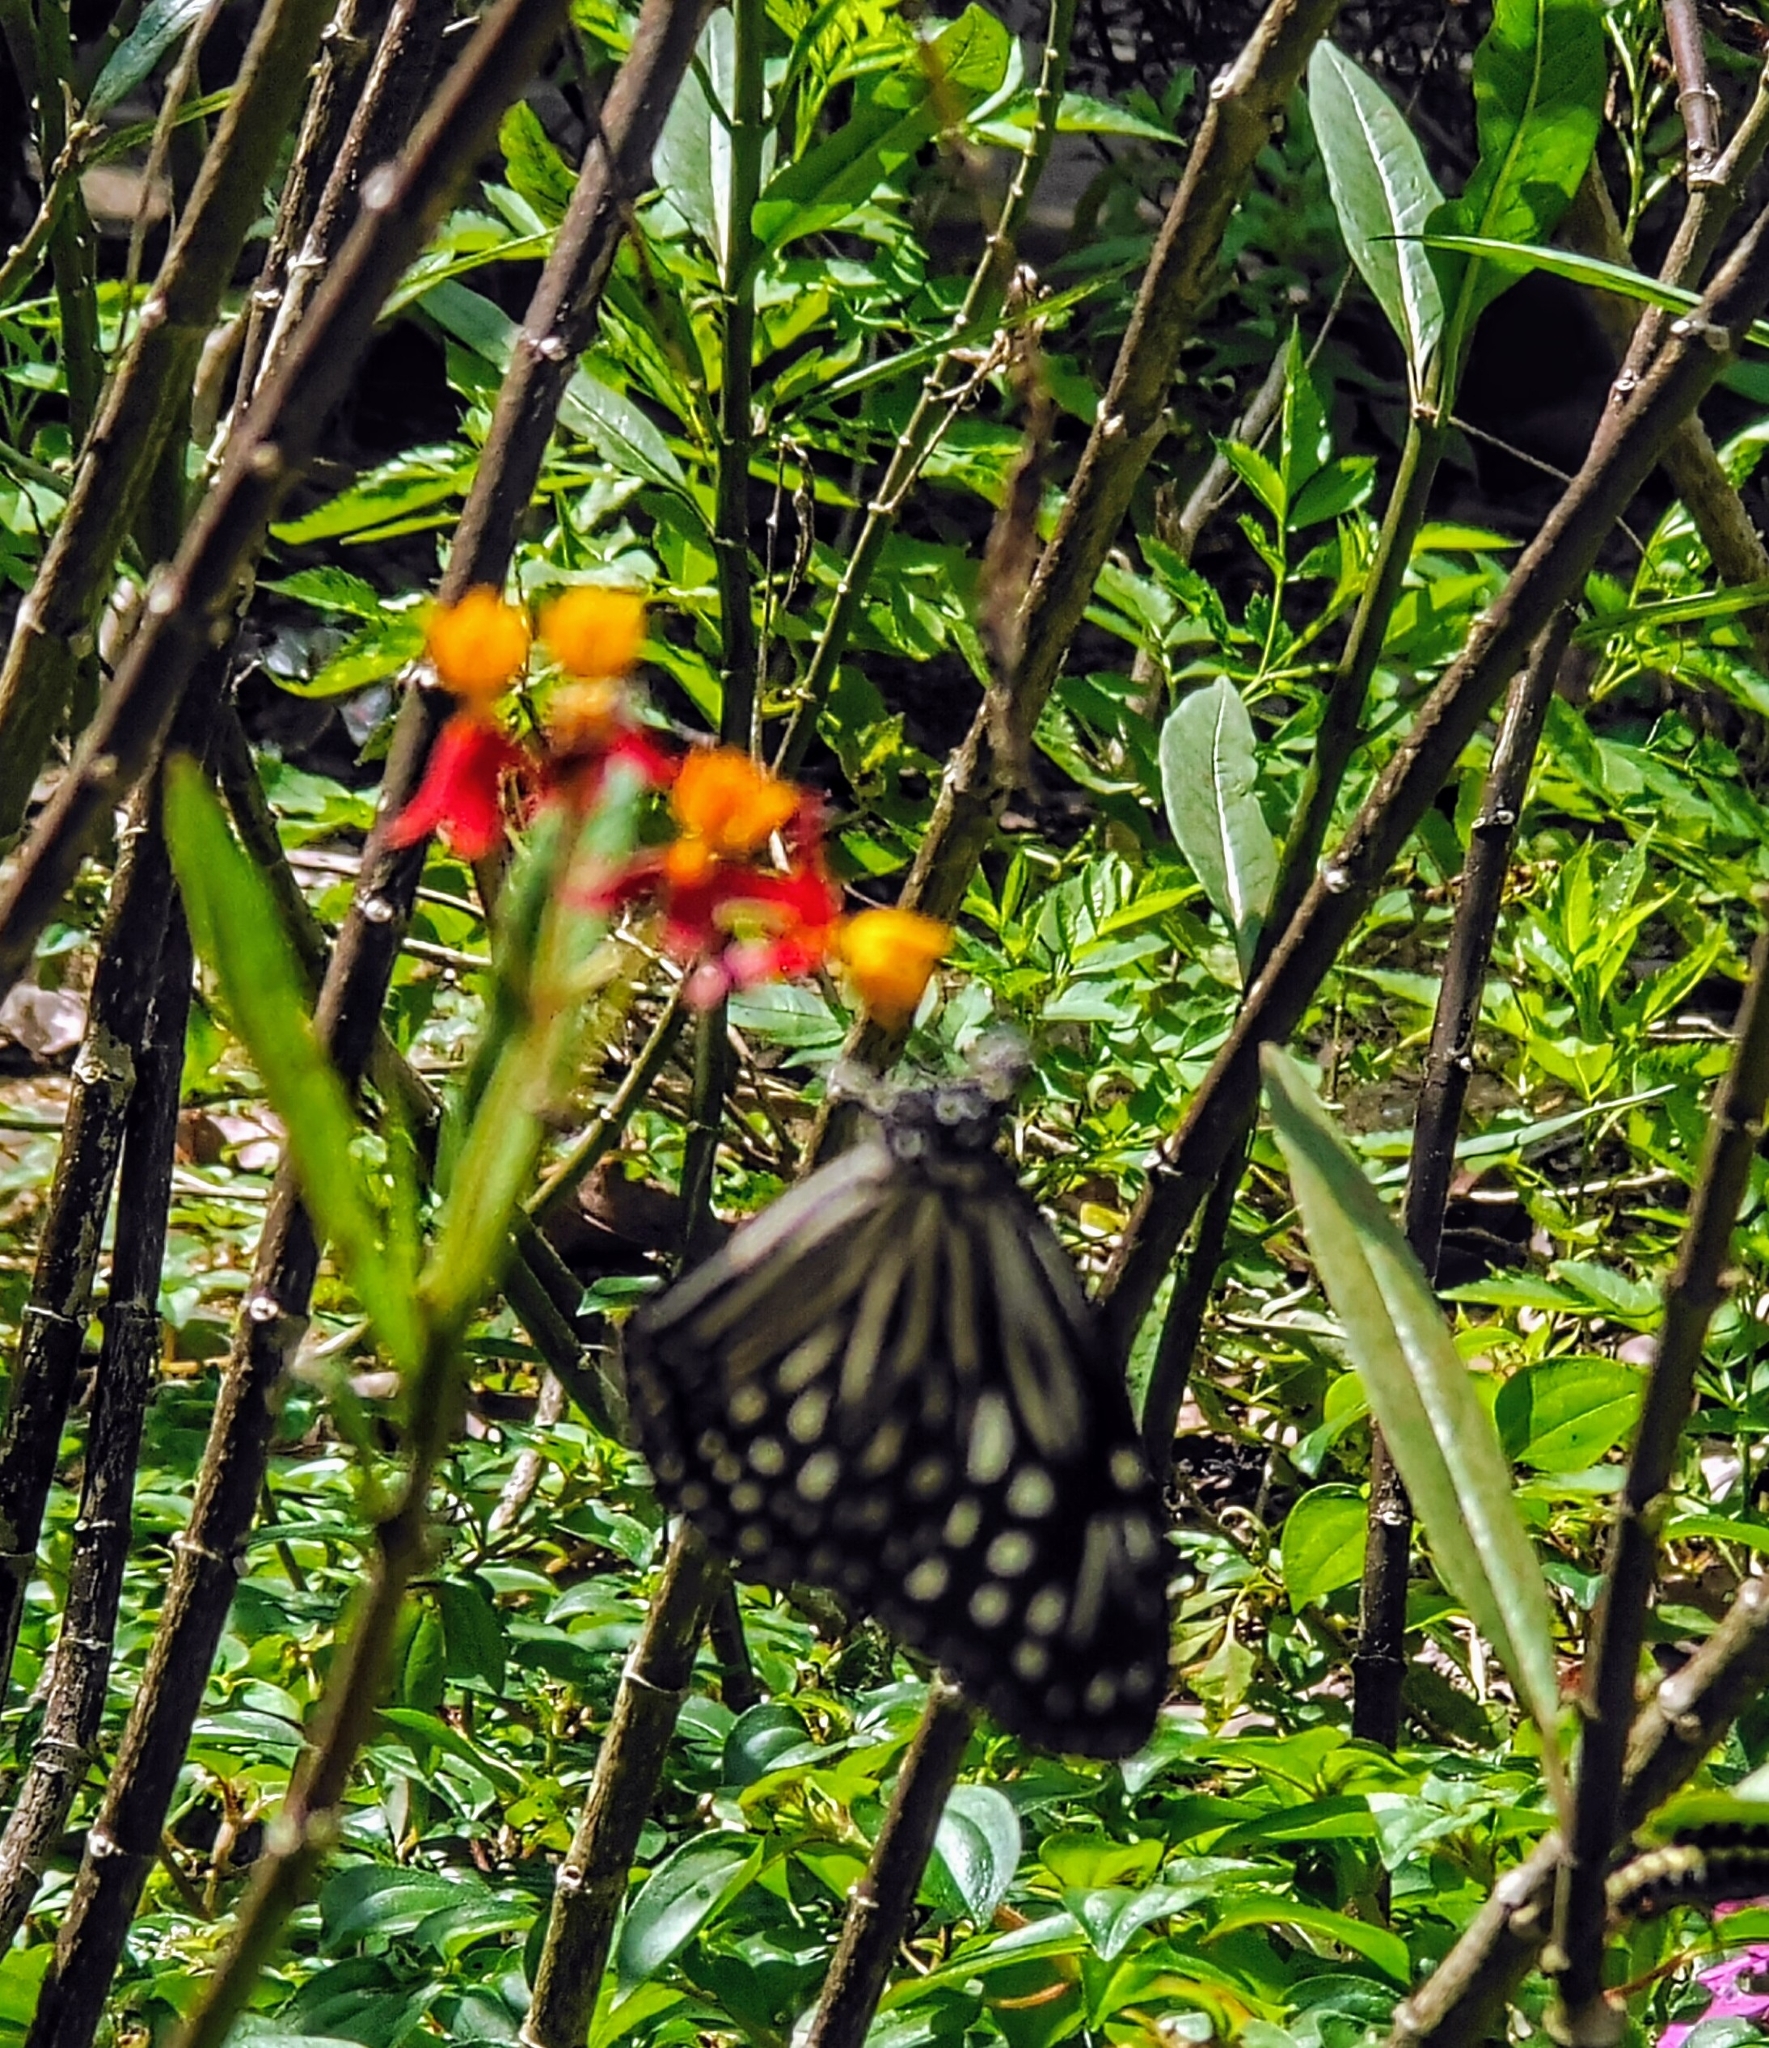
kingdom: Animalia
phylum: Arthropoda
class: Insecta
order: Lepidoptera
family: Nymphalidae
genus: Parantica
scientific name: Parantica agleoides
